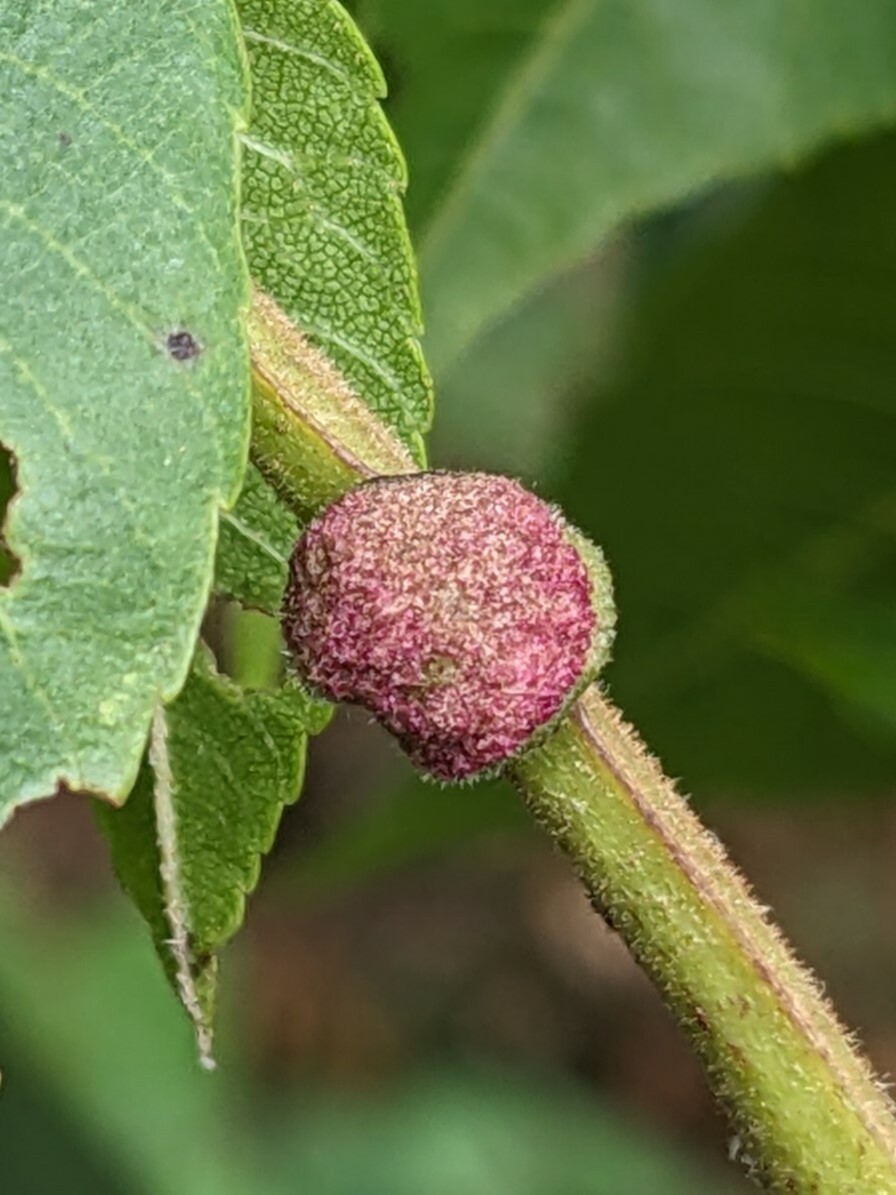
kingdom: Animalia
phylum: Arthropoda
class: Arachnida
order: Trombidiformes
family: Eriophyidae
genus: Aceria
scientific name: Aceria
